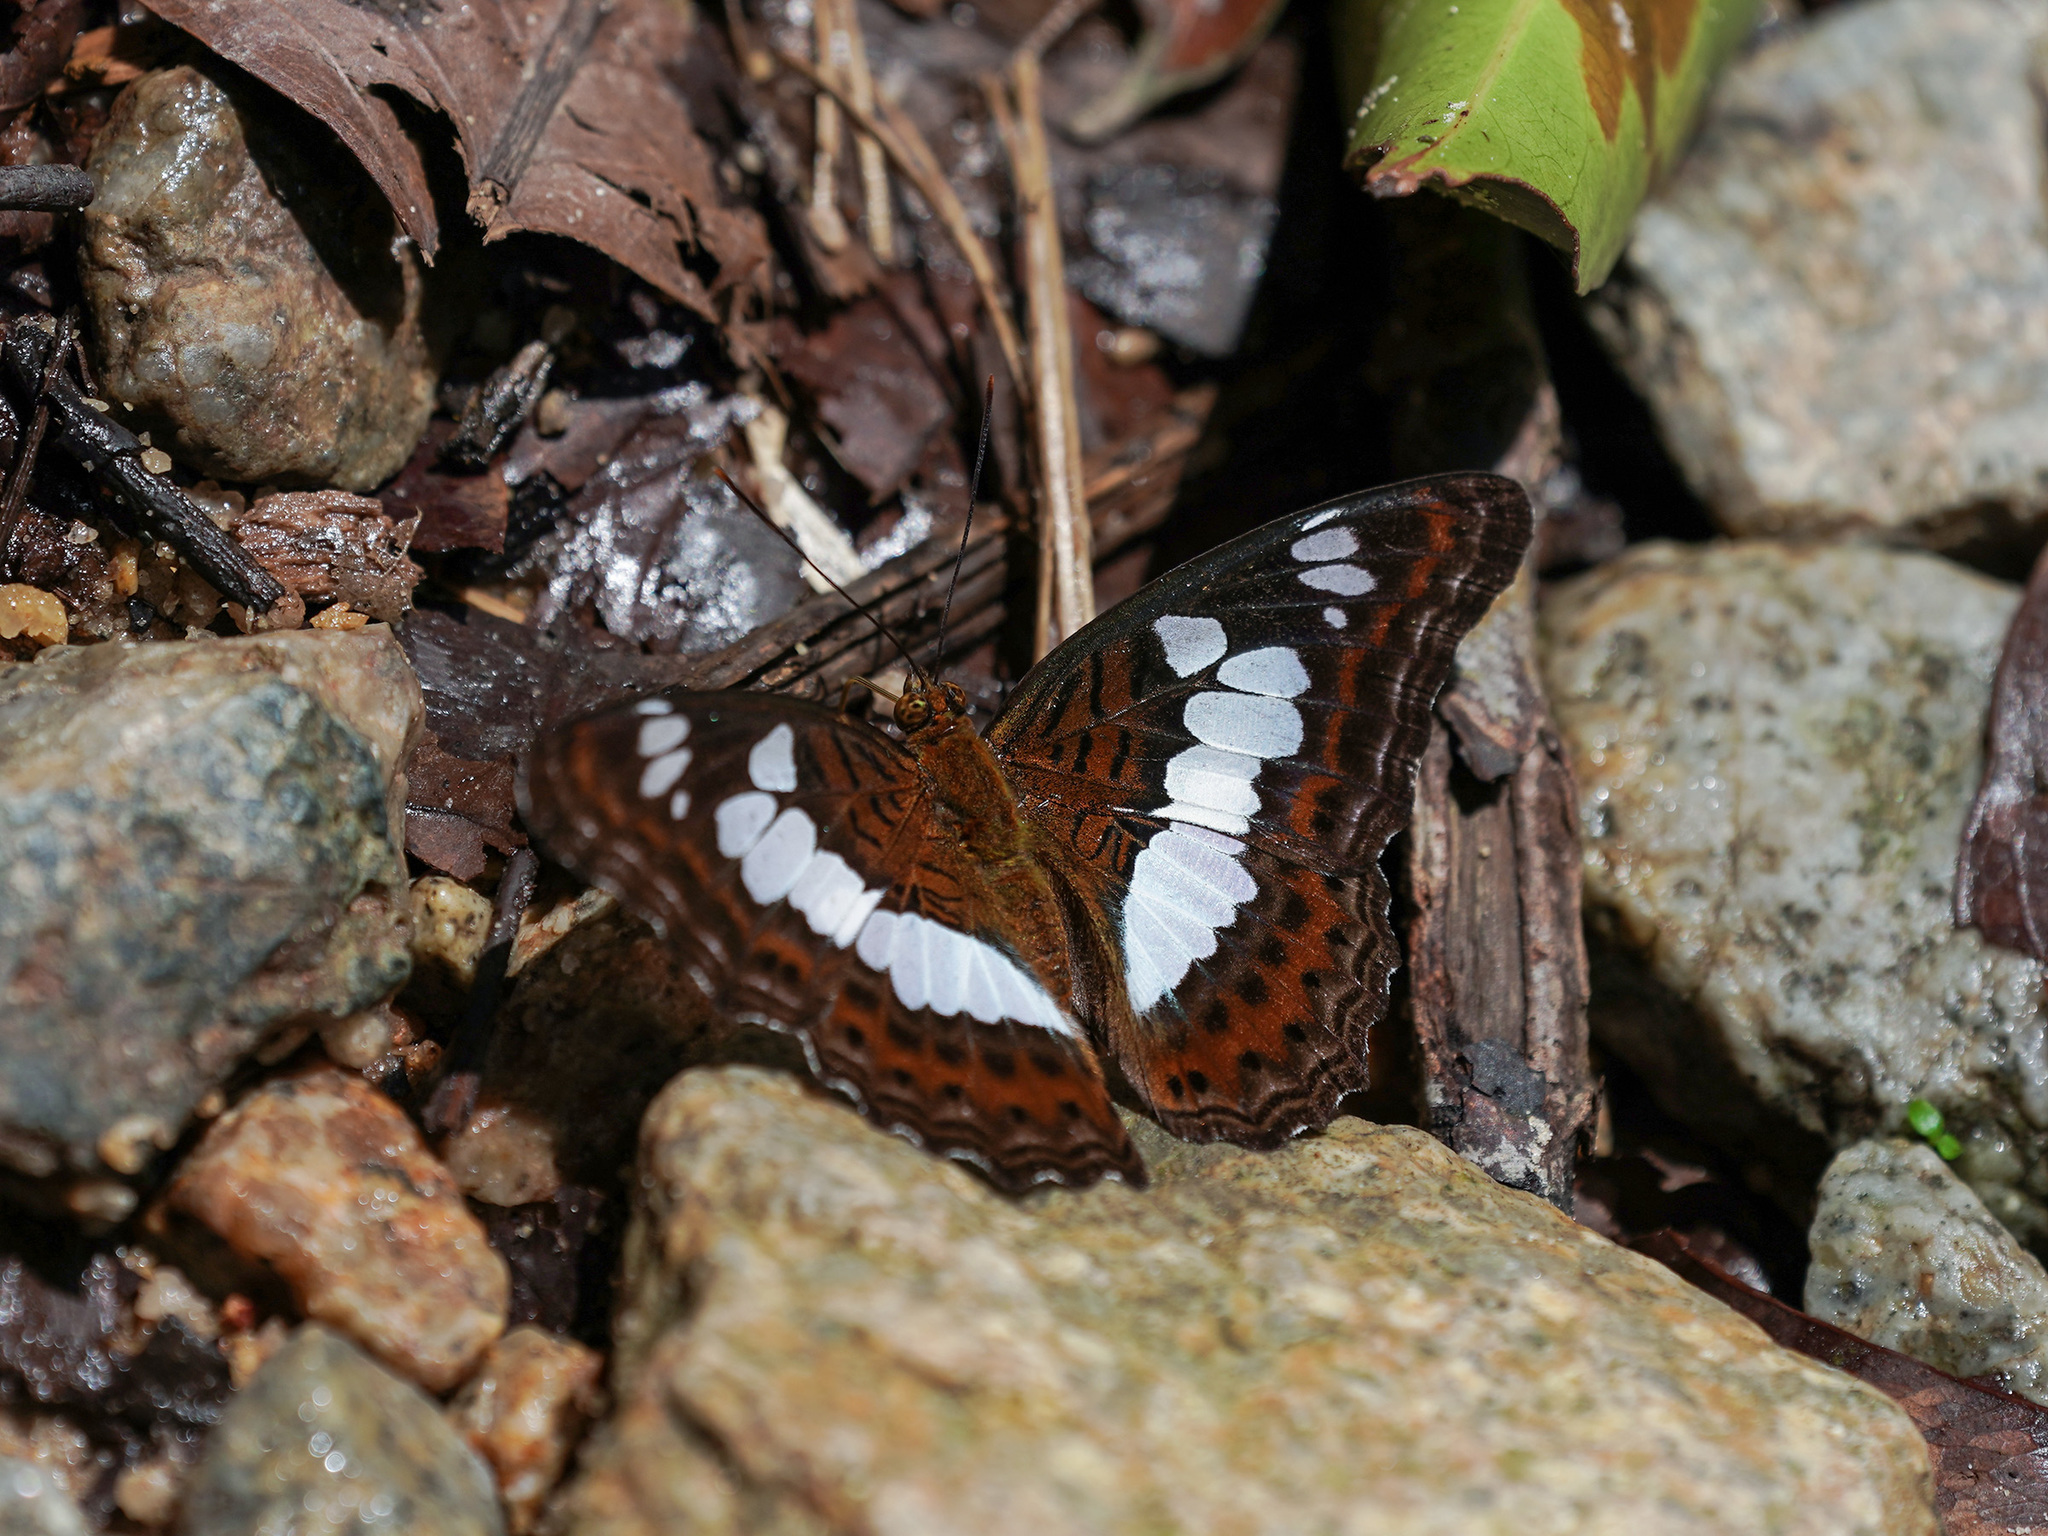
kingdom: Animalia
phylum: Arthropoda
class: Insecta
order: Lepidoptera
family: Nymphalidae
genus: Limenitis
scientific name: Limenitis Moduza procris
